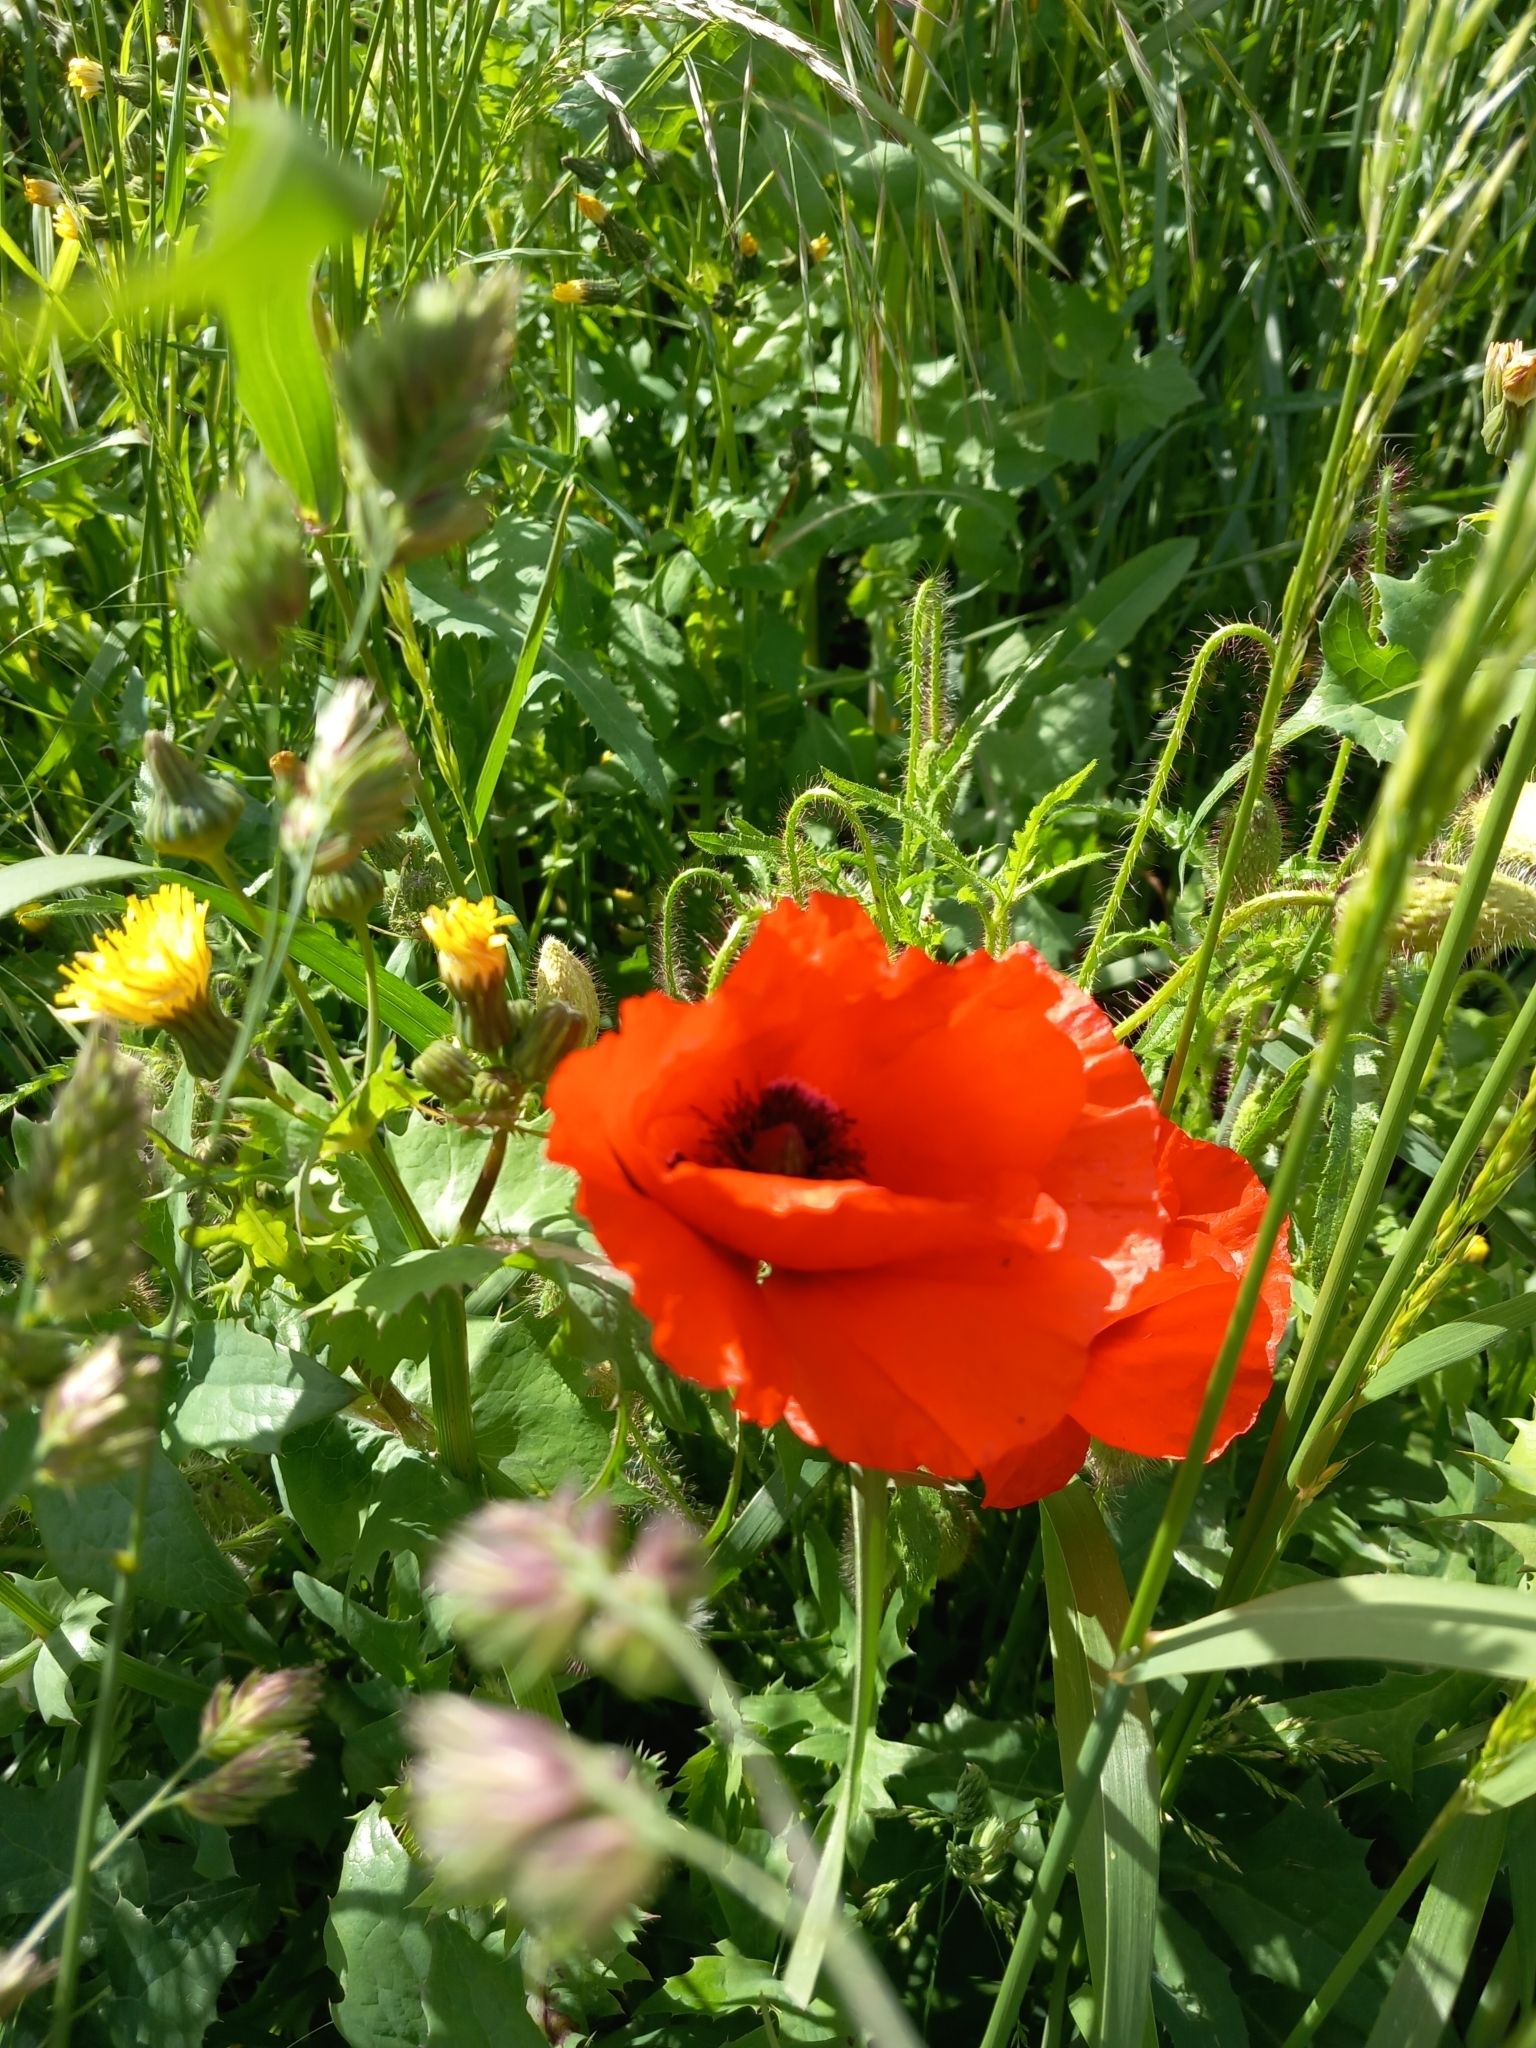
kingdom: Plantae
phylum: Tracheophyta
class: Magnoliopsida
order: Ranunculales
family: Papaveraceae
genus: Papaver
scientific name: Papaver rhoeas
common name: Corn poppy
